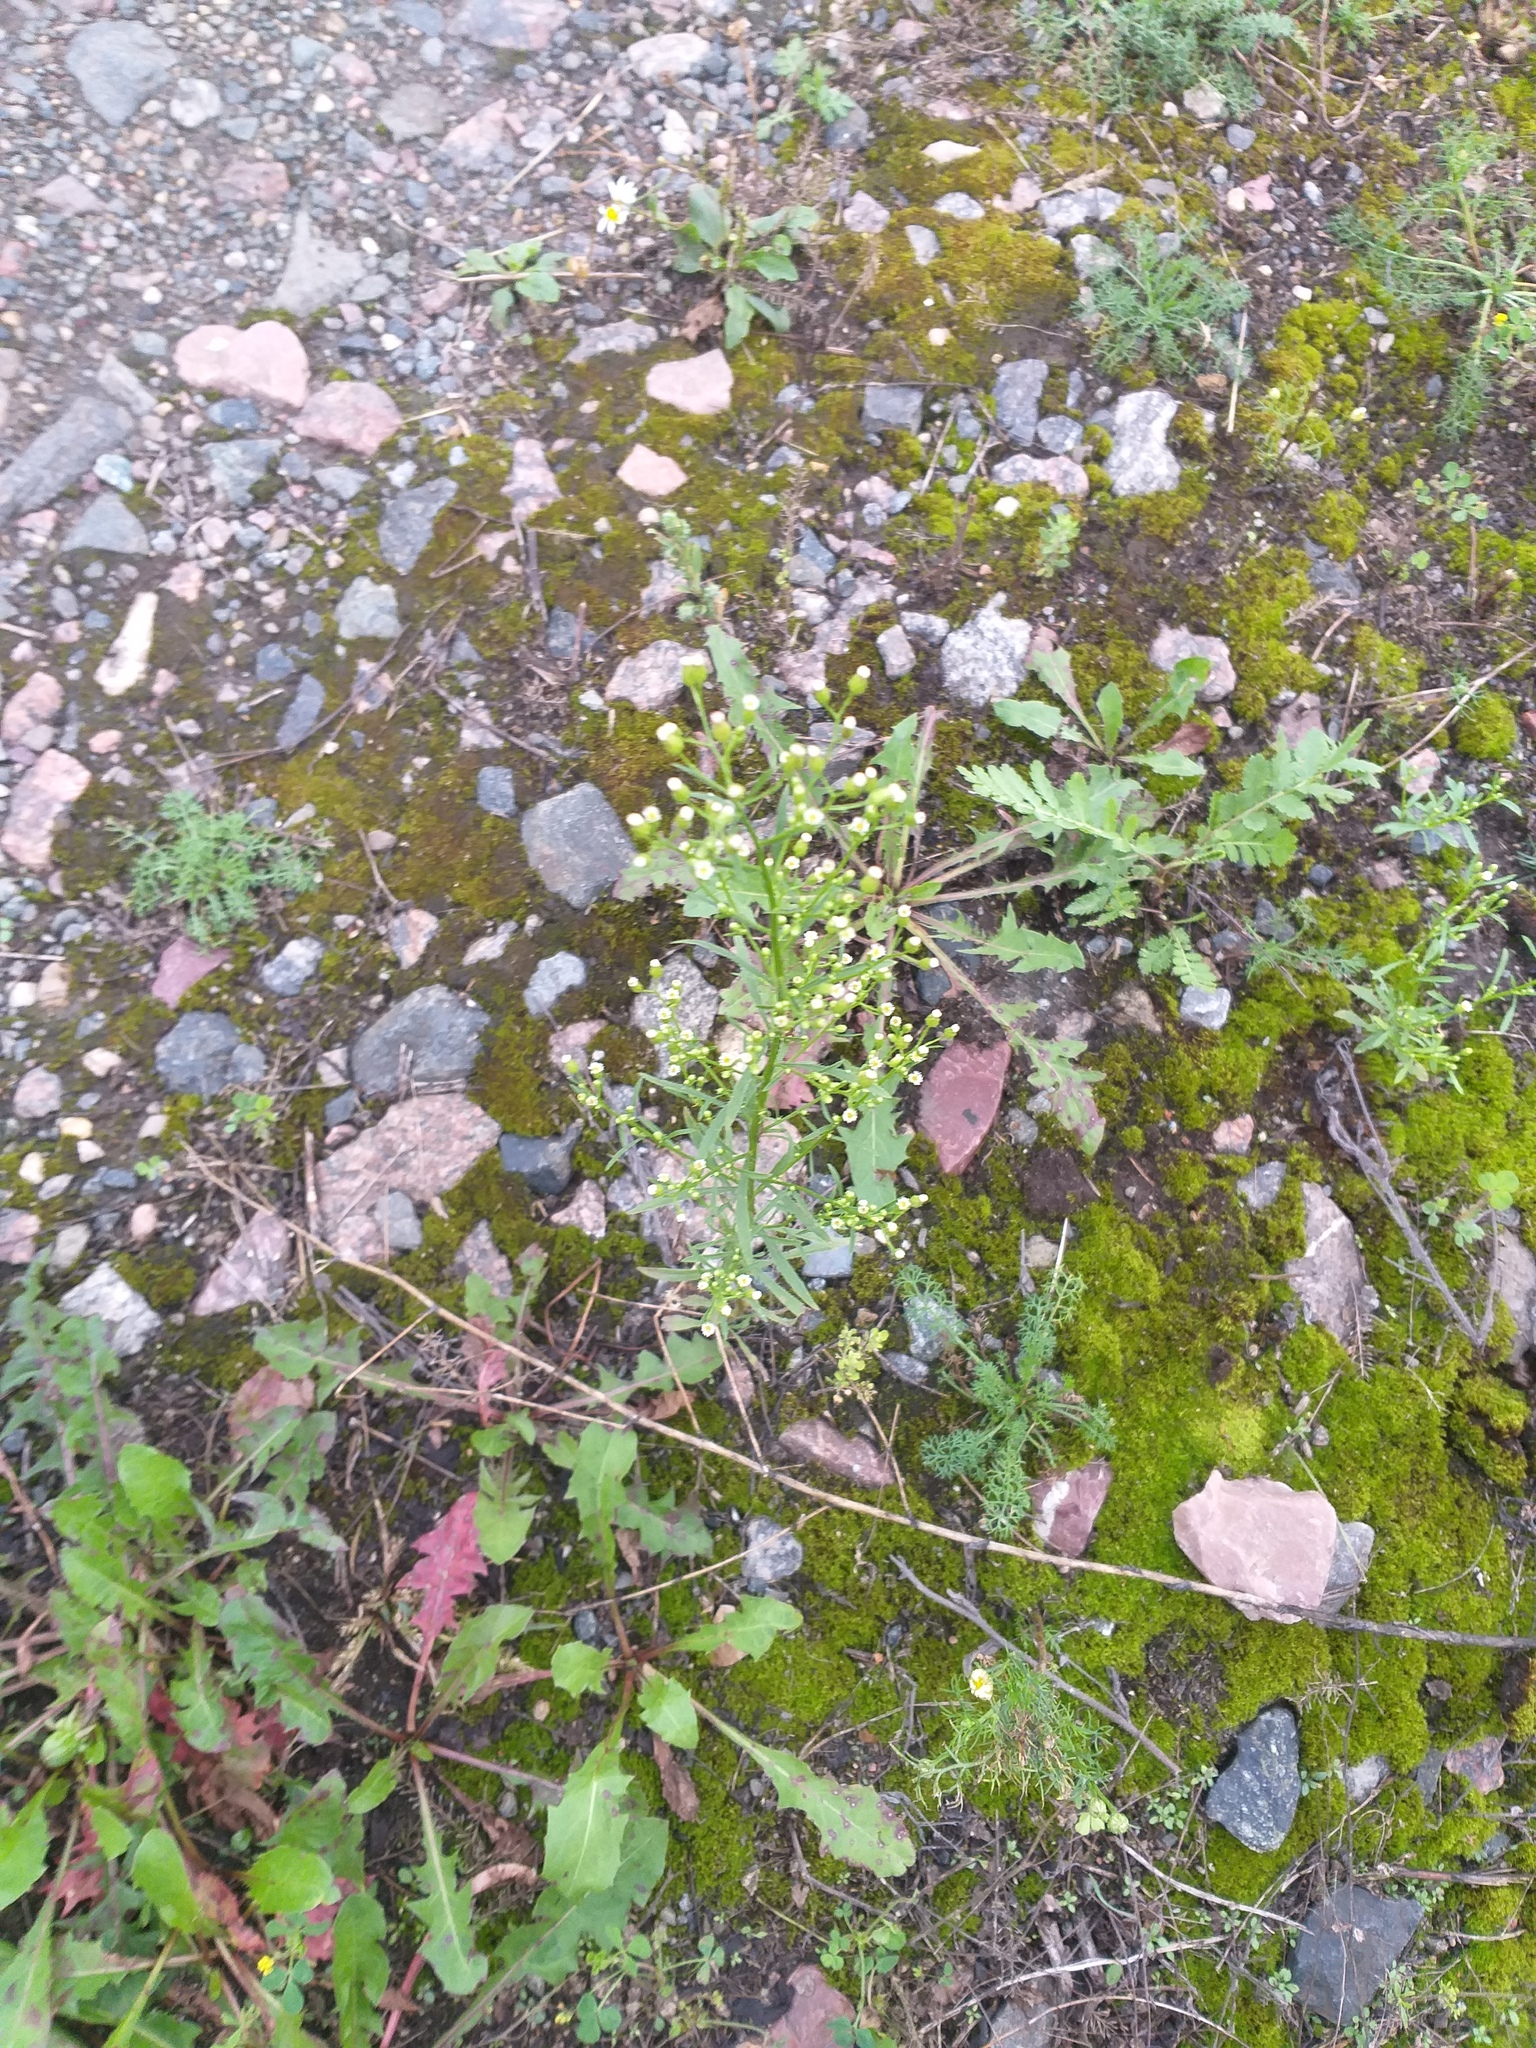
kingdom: Plantae
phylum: Tracheophyta
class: Magnoliopsida
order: Asterales
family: Asteraceae
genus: Erigeron
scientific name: Erigeron canadensis
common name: Canadian fleabane
